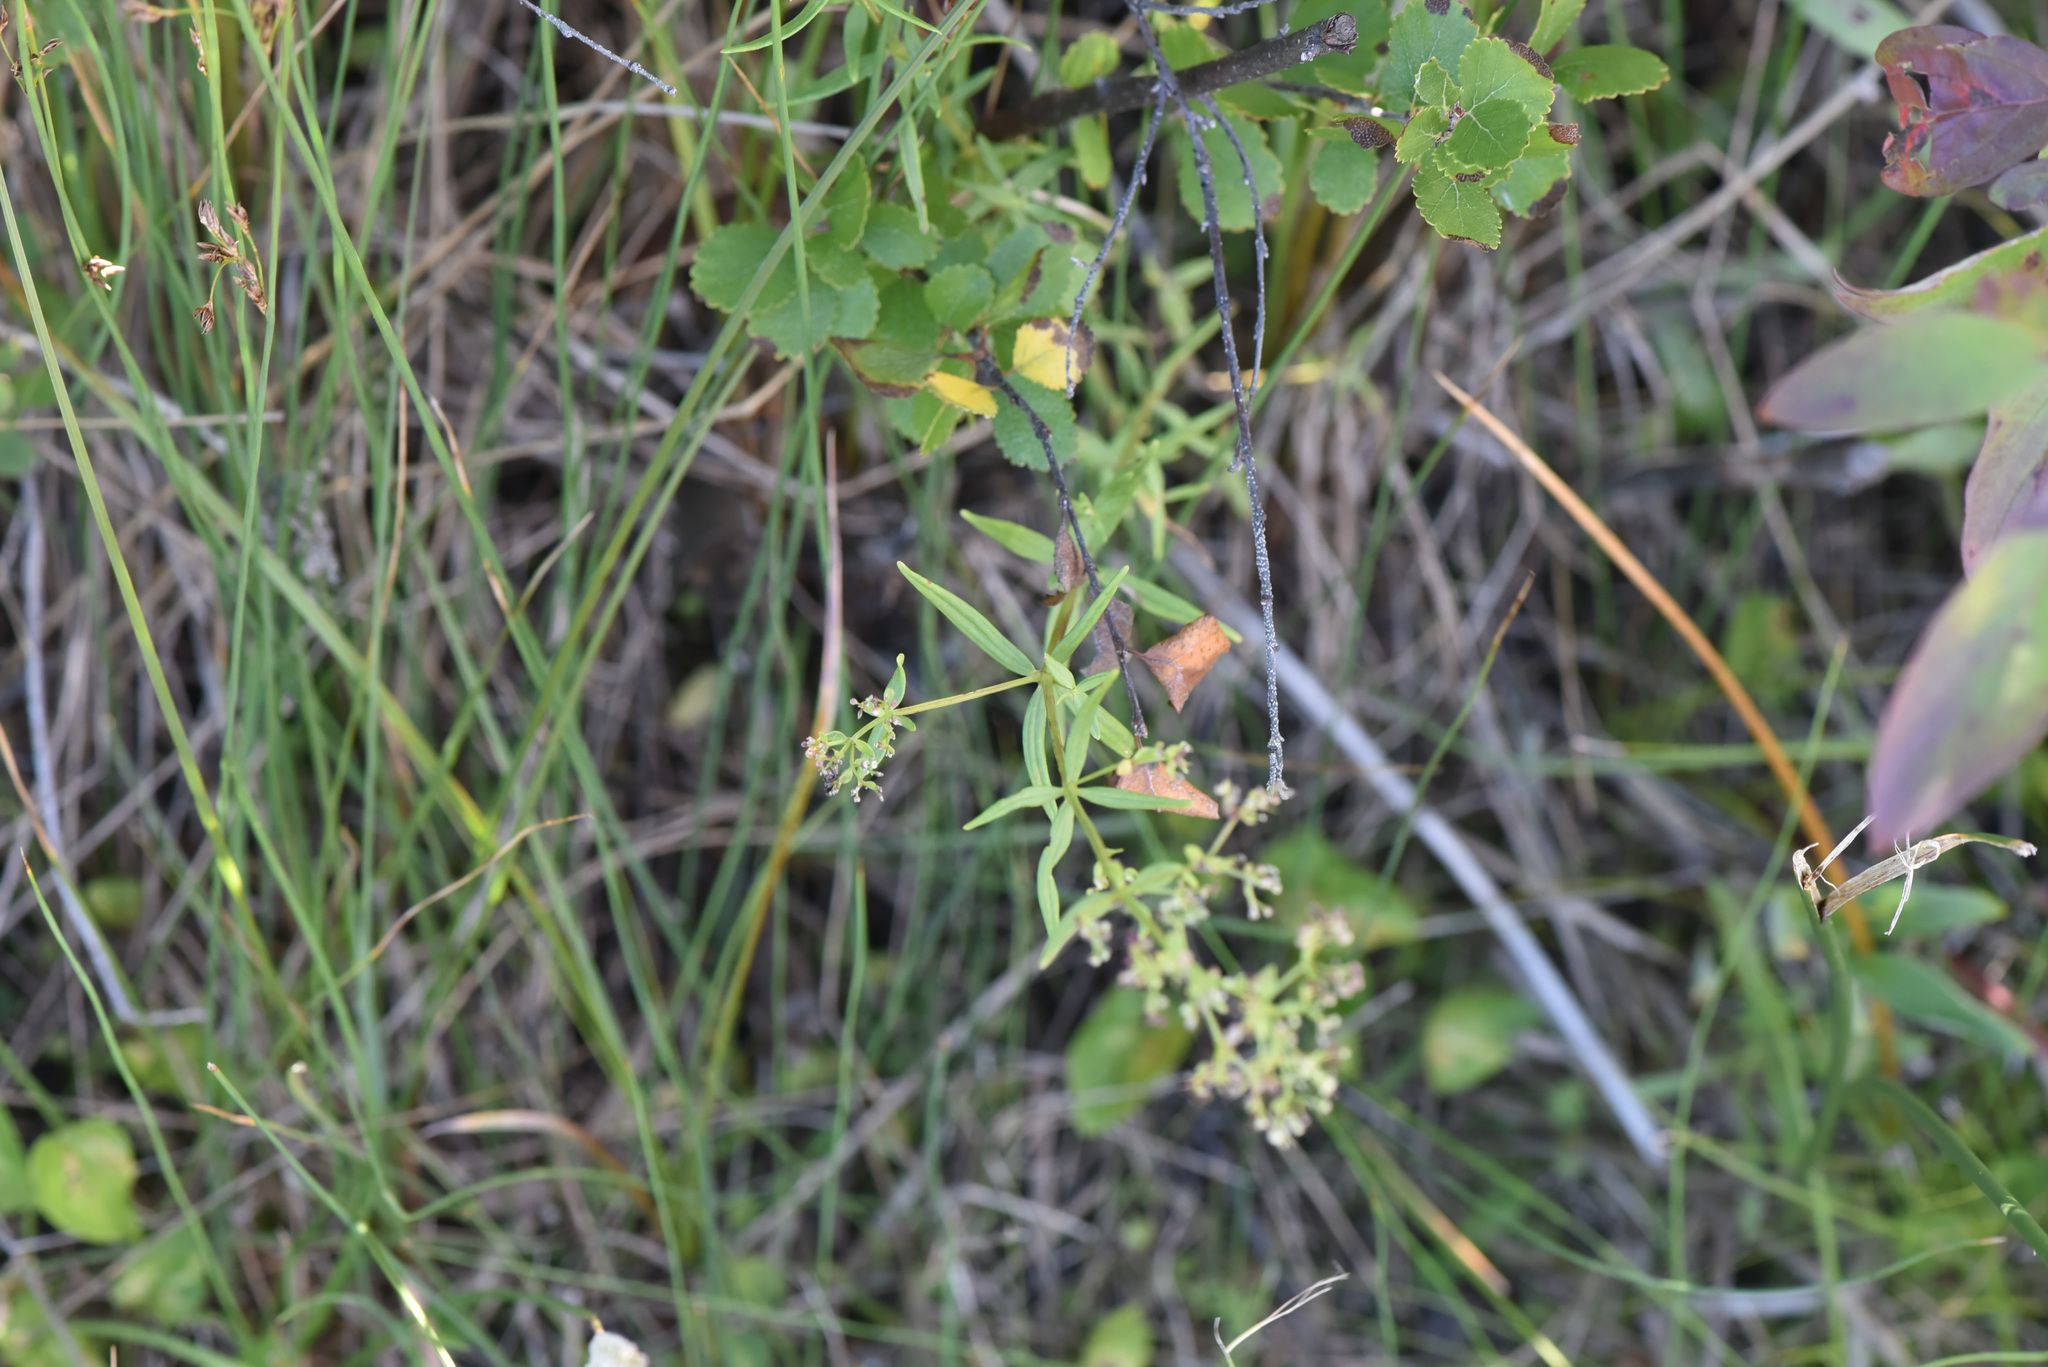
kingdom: Plantae
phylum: Tracheophyta
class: Magnoliopsida
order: Gentianales
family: Rubiaceae
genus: Galium
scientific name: Galium boreale
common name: Northern bedstraw
